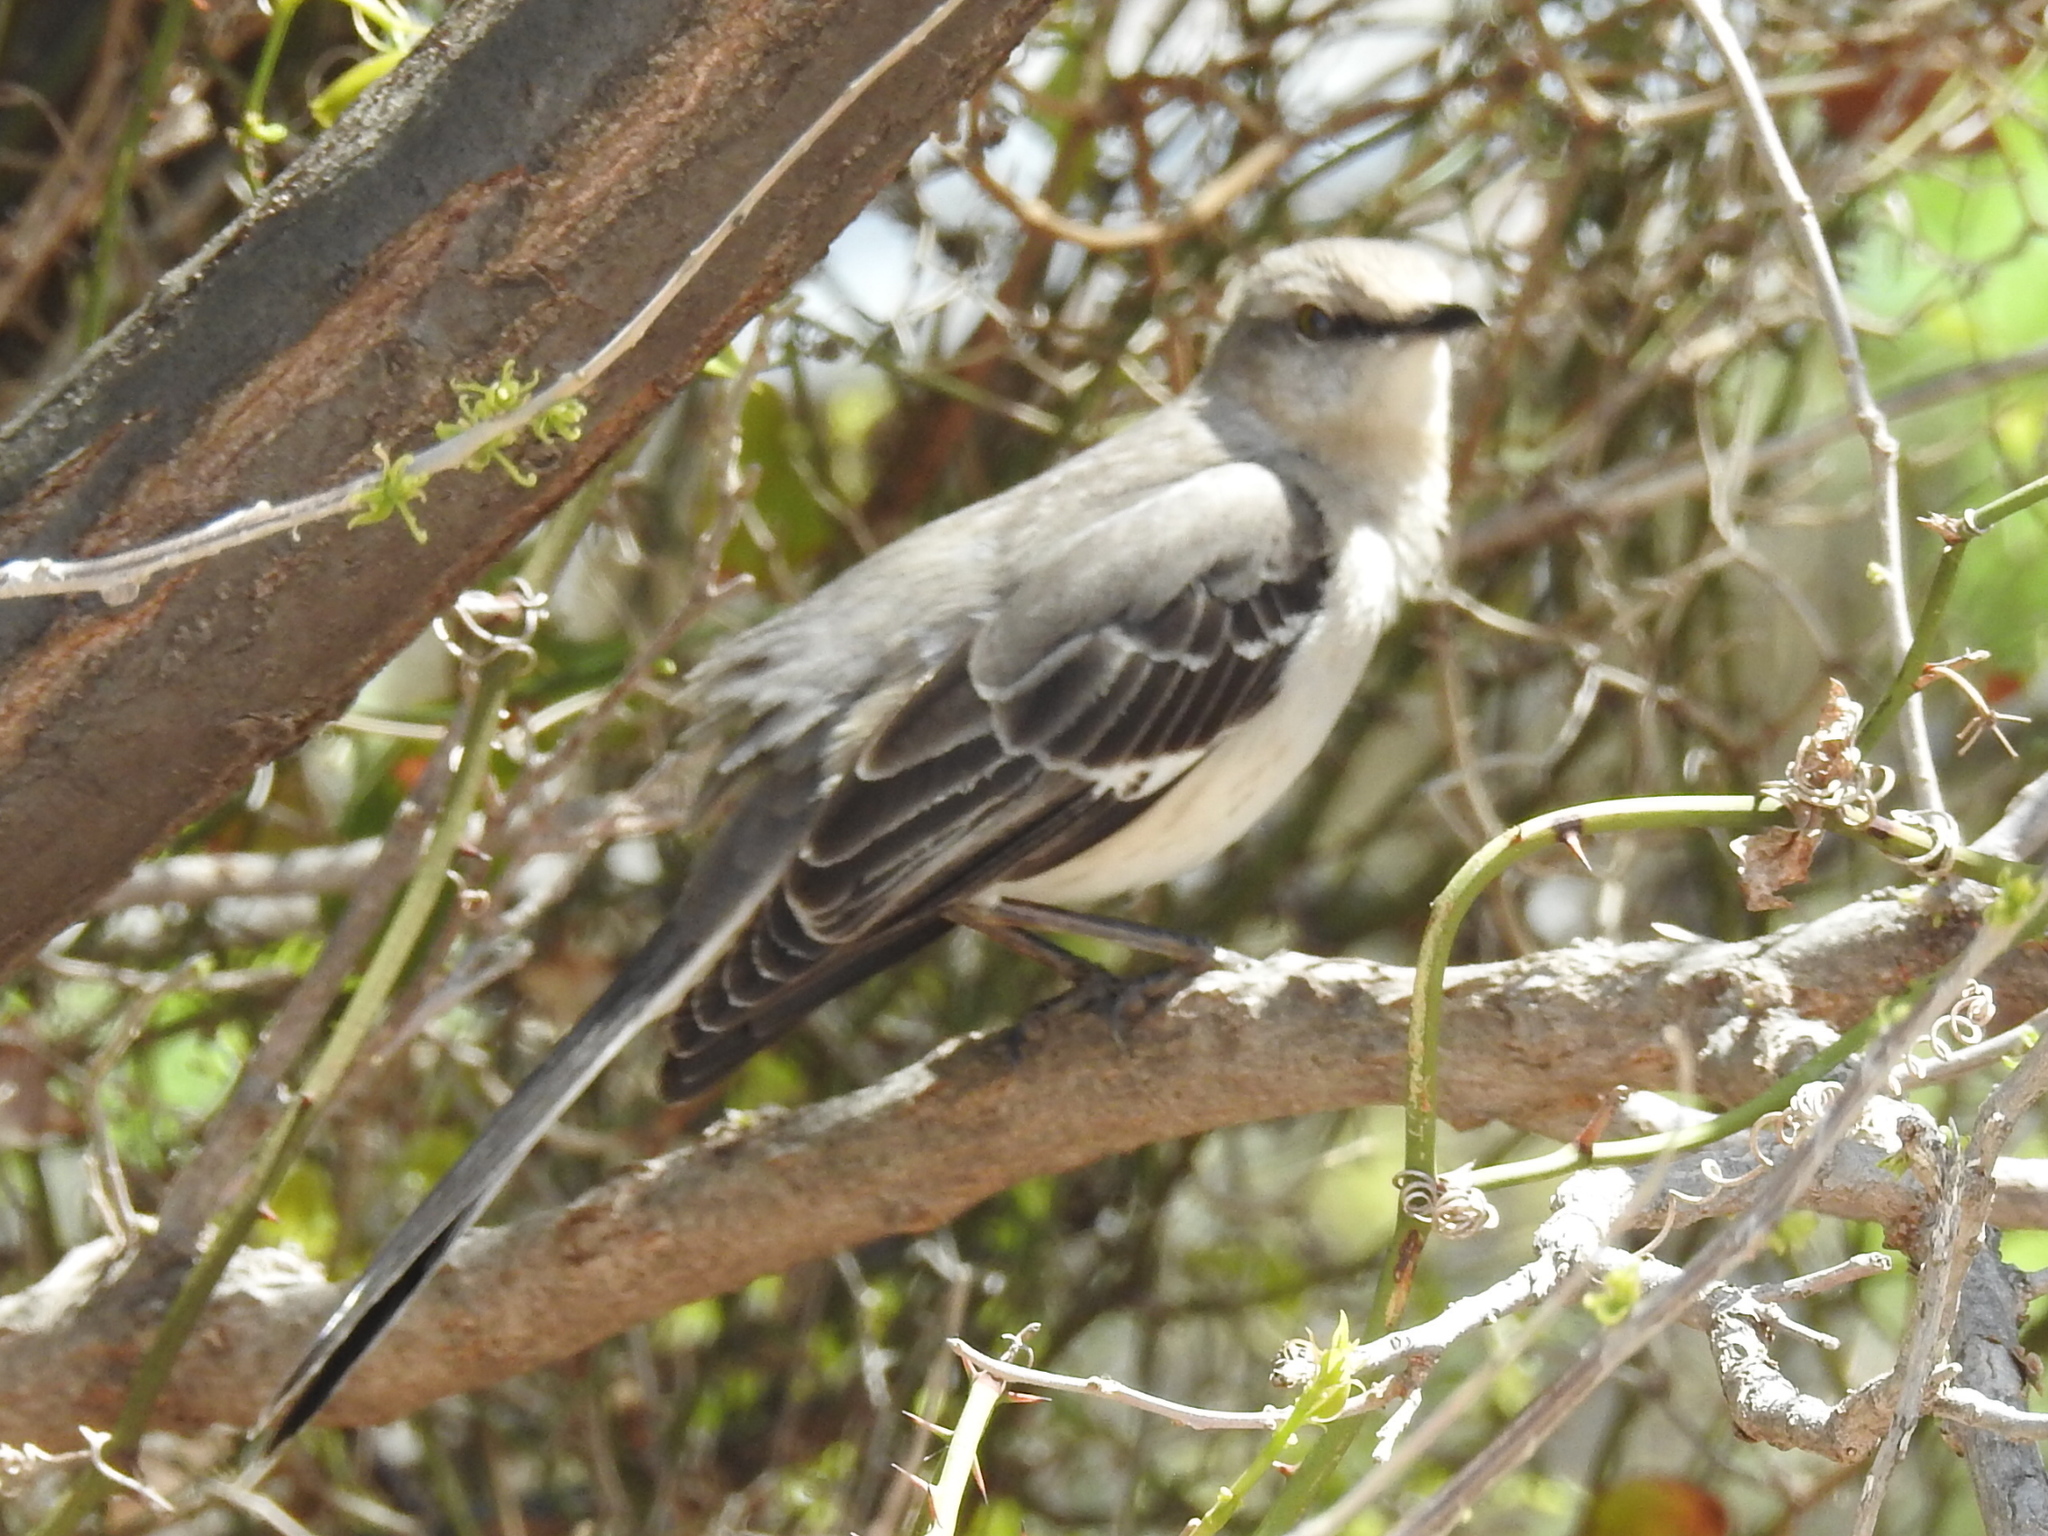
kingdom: Animalia
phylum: Chordata
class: Aves
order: Passeriformes
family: Mimidae
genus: Mimus
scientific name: Mimus polyglottos
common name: Northern mockingbird
